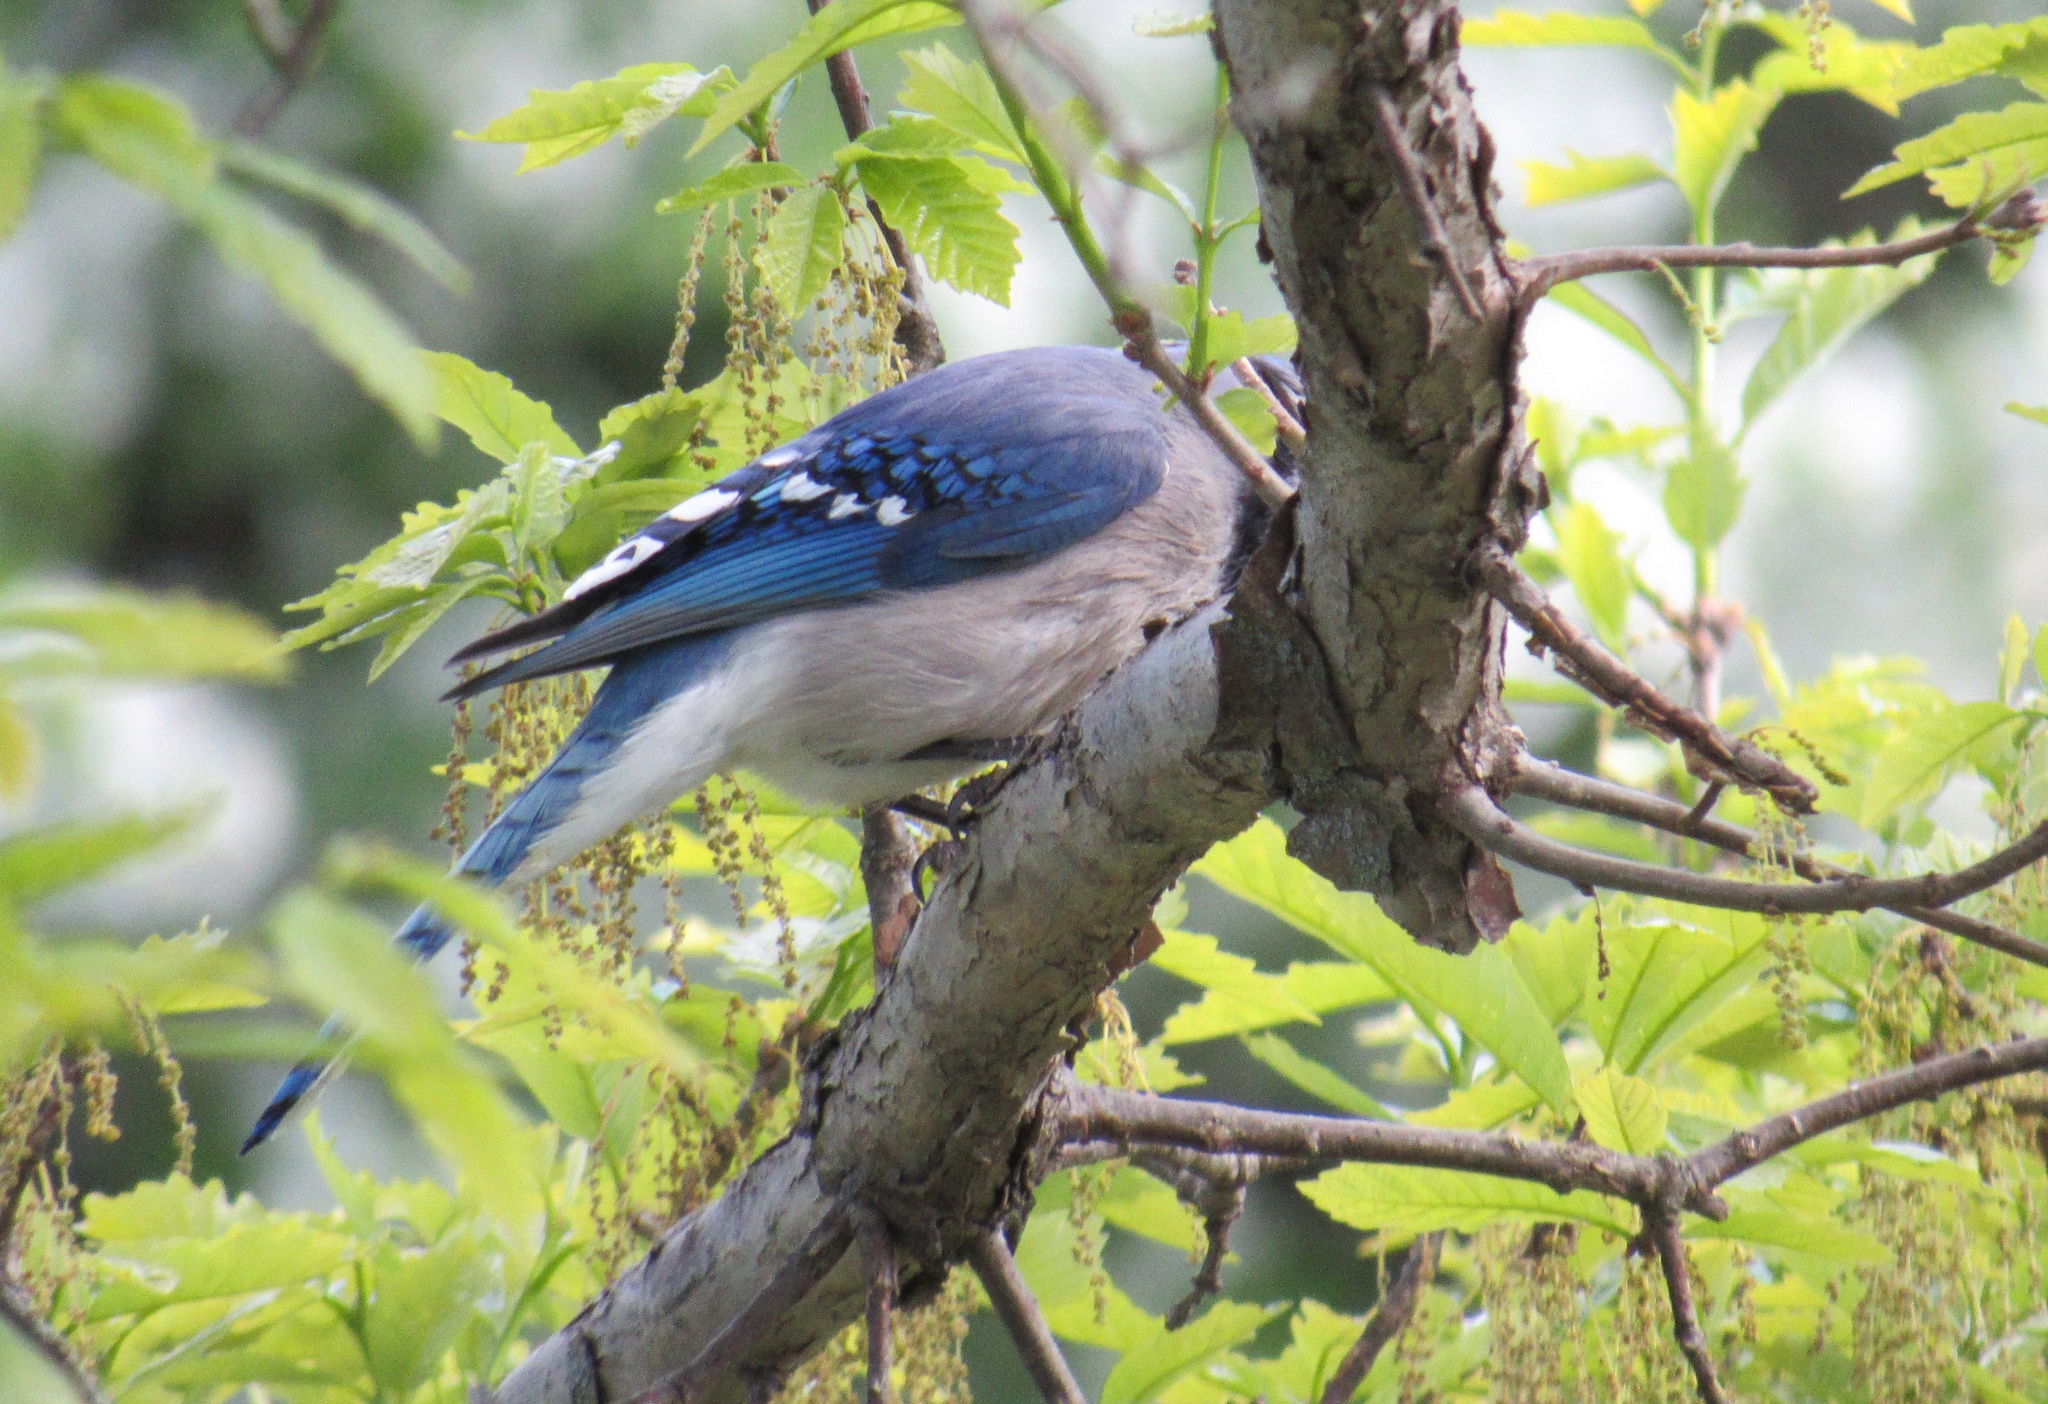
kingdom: Animalia
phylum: Chordata
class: Aves
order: Passeriformes
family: Corvidae
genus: Cyanocitta
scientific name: Cyanocitta cristata
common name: Blue jay
